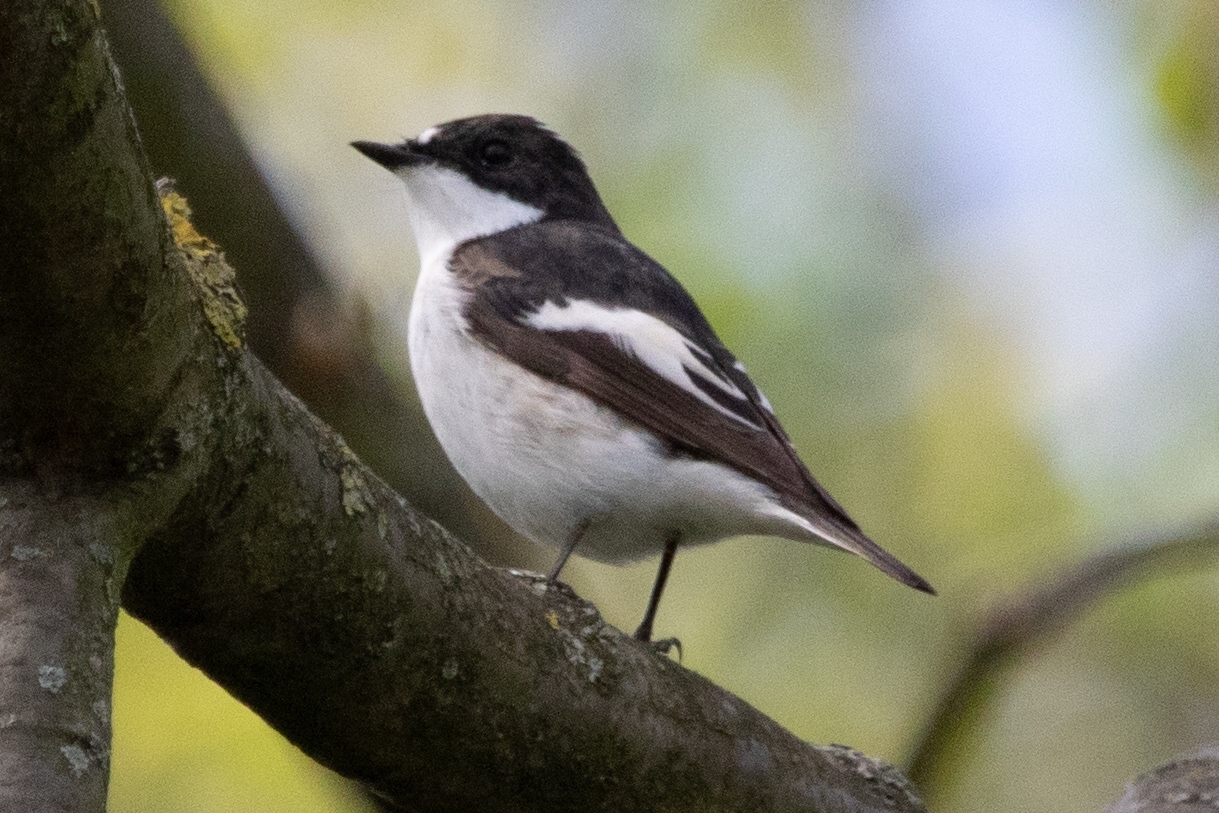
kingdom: Animalia
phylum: Chordata
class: Aves
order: Passeriformes
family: Muscicapidae
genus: Ficedula
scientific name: Ficedula hypoleuca
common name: European pied flycatcher
